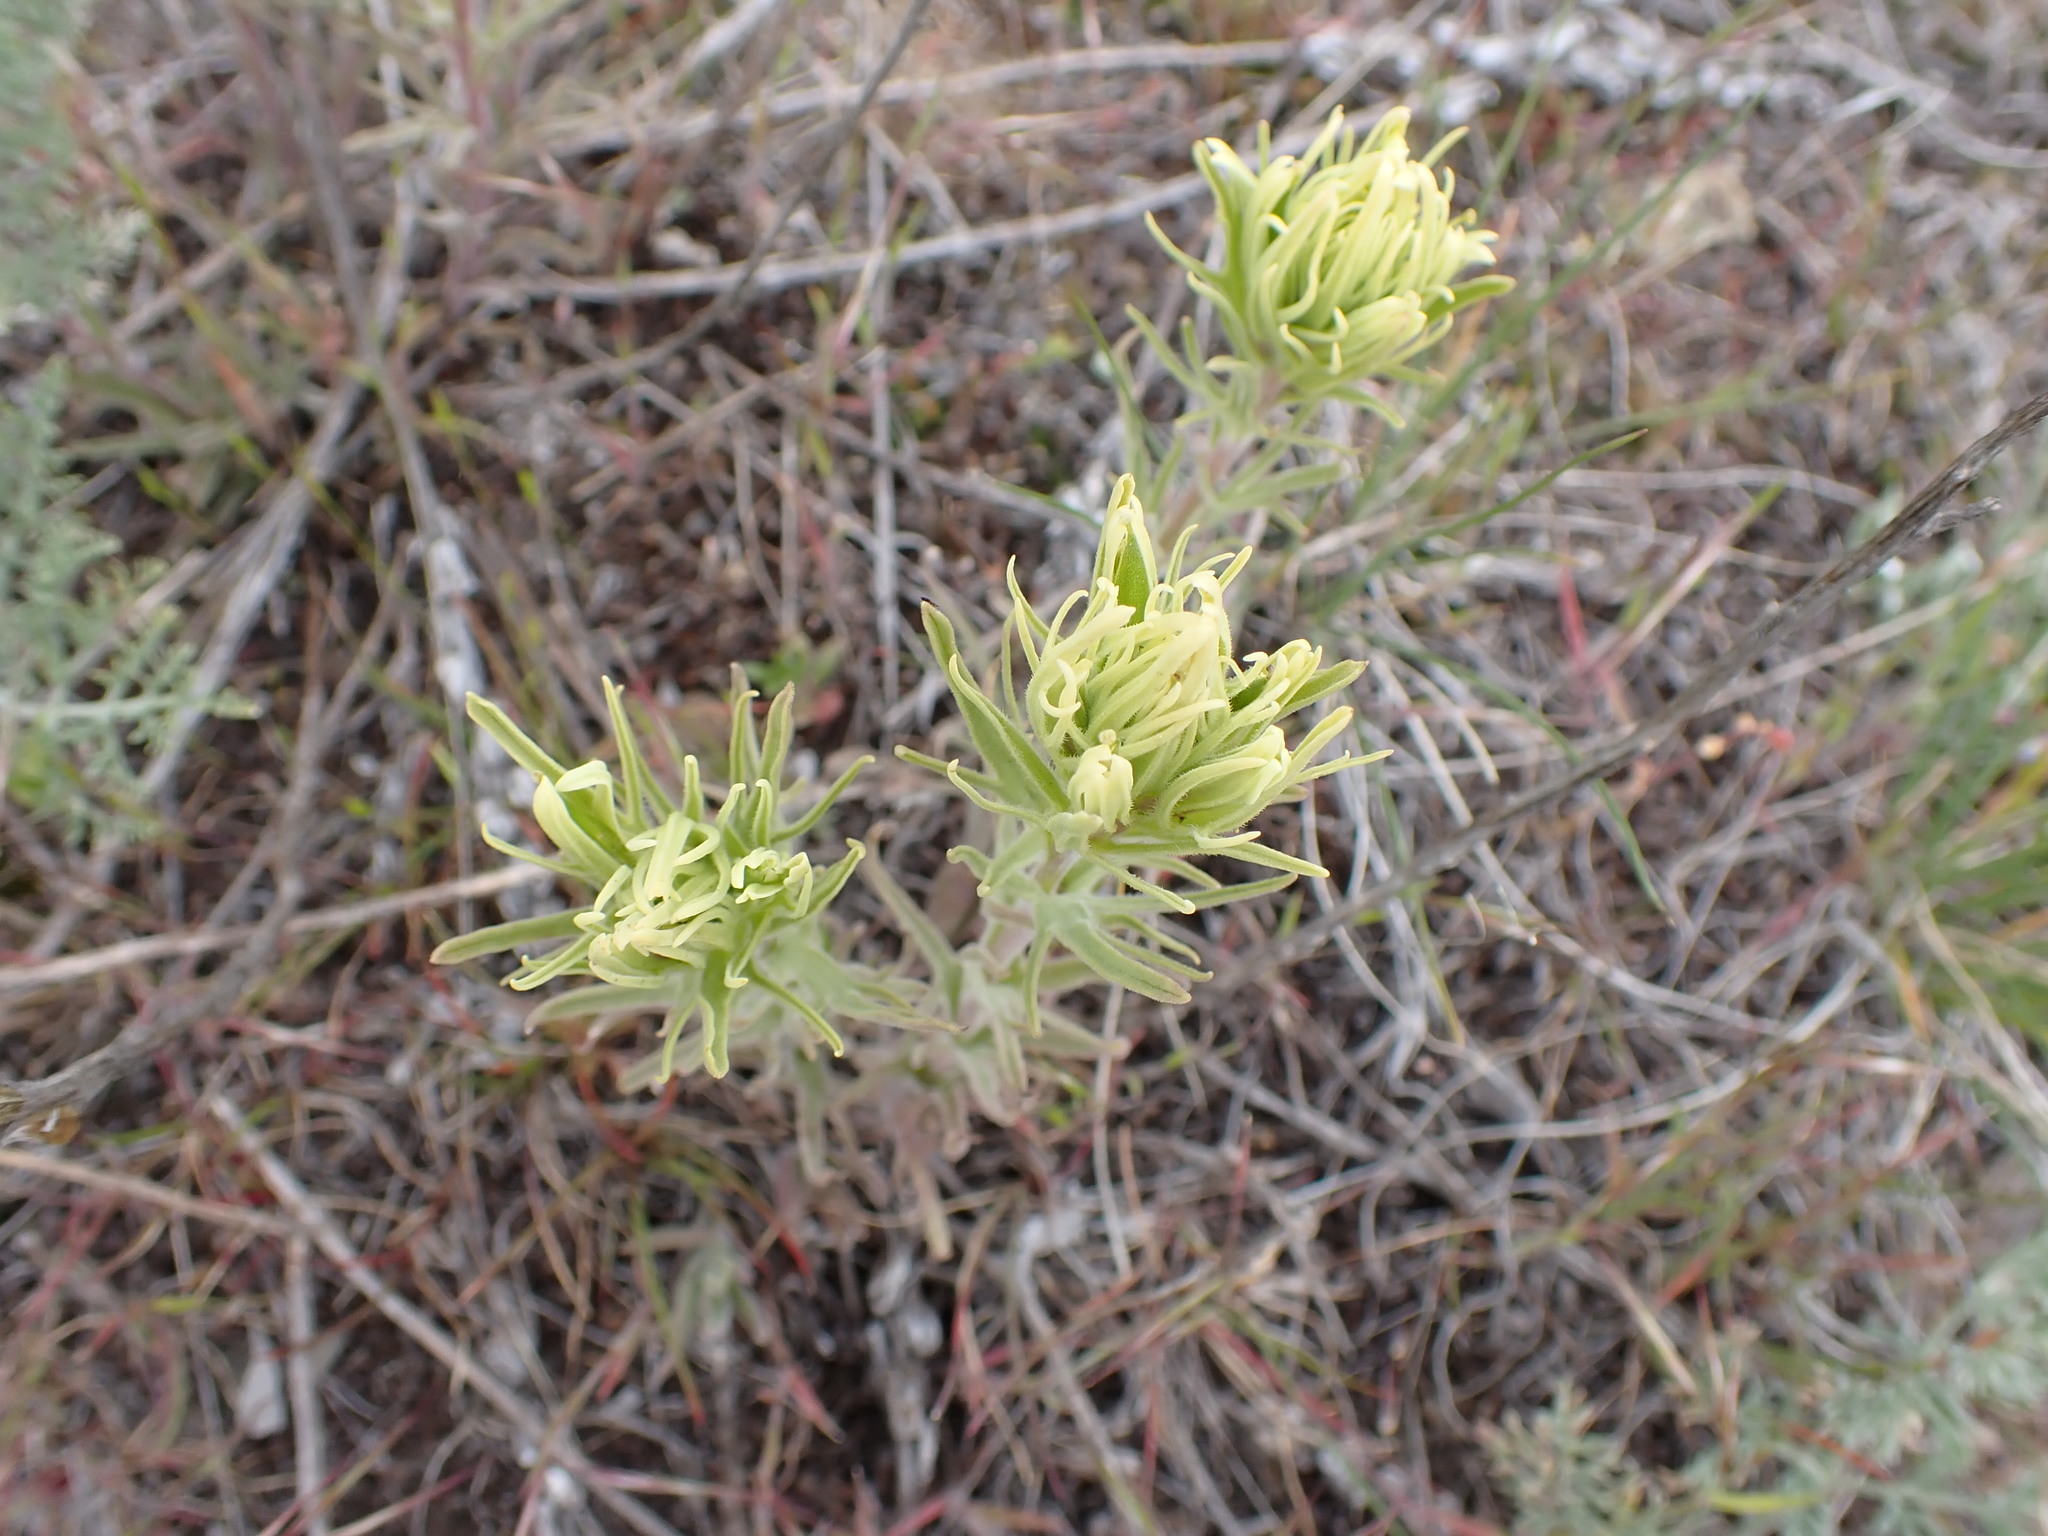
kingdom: Plantae
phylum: Tracheophyta
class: Magnoliopsida
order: Lamiales
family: Orobanchaceae
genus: Castilleja
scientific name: Castilleja thompsonii
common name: Thompson's paintbrush
